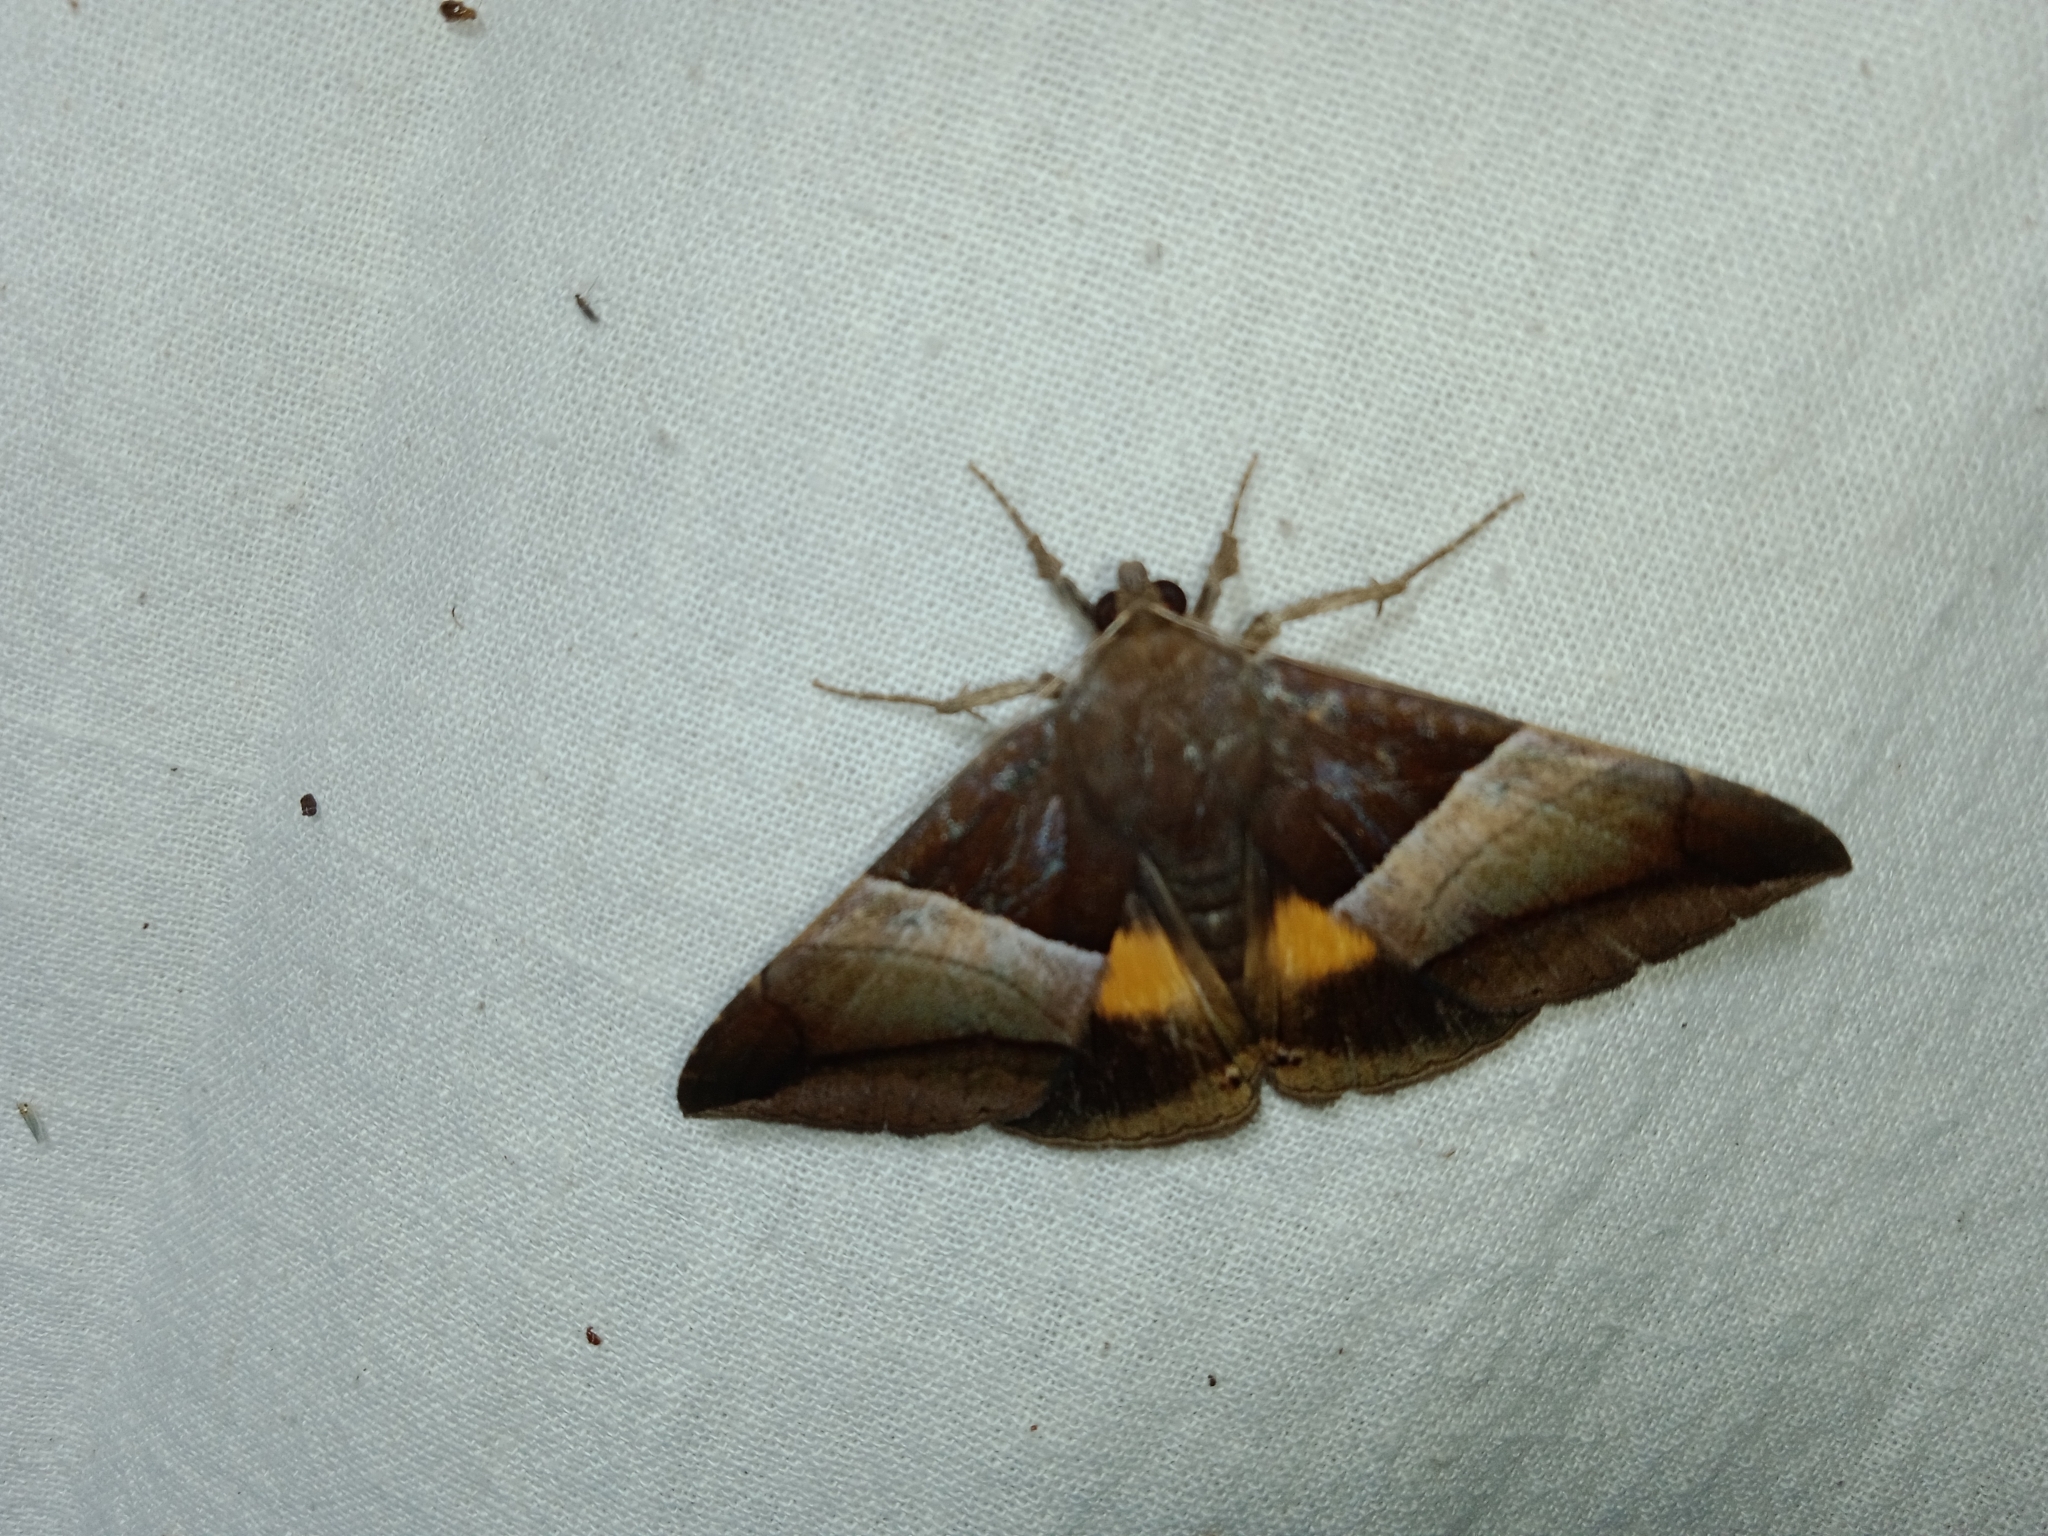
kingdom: Animalia
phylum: Arthropoda
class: Insecta
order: Lepidoptera
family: Erebidae
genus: Bastilla
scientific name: Bastilla fulvotaenia
